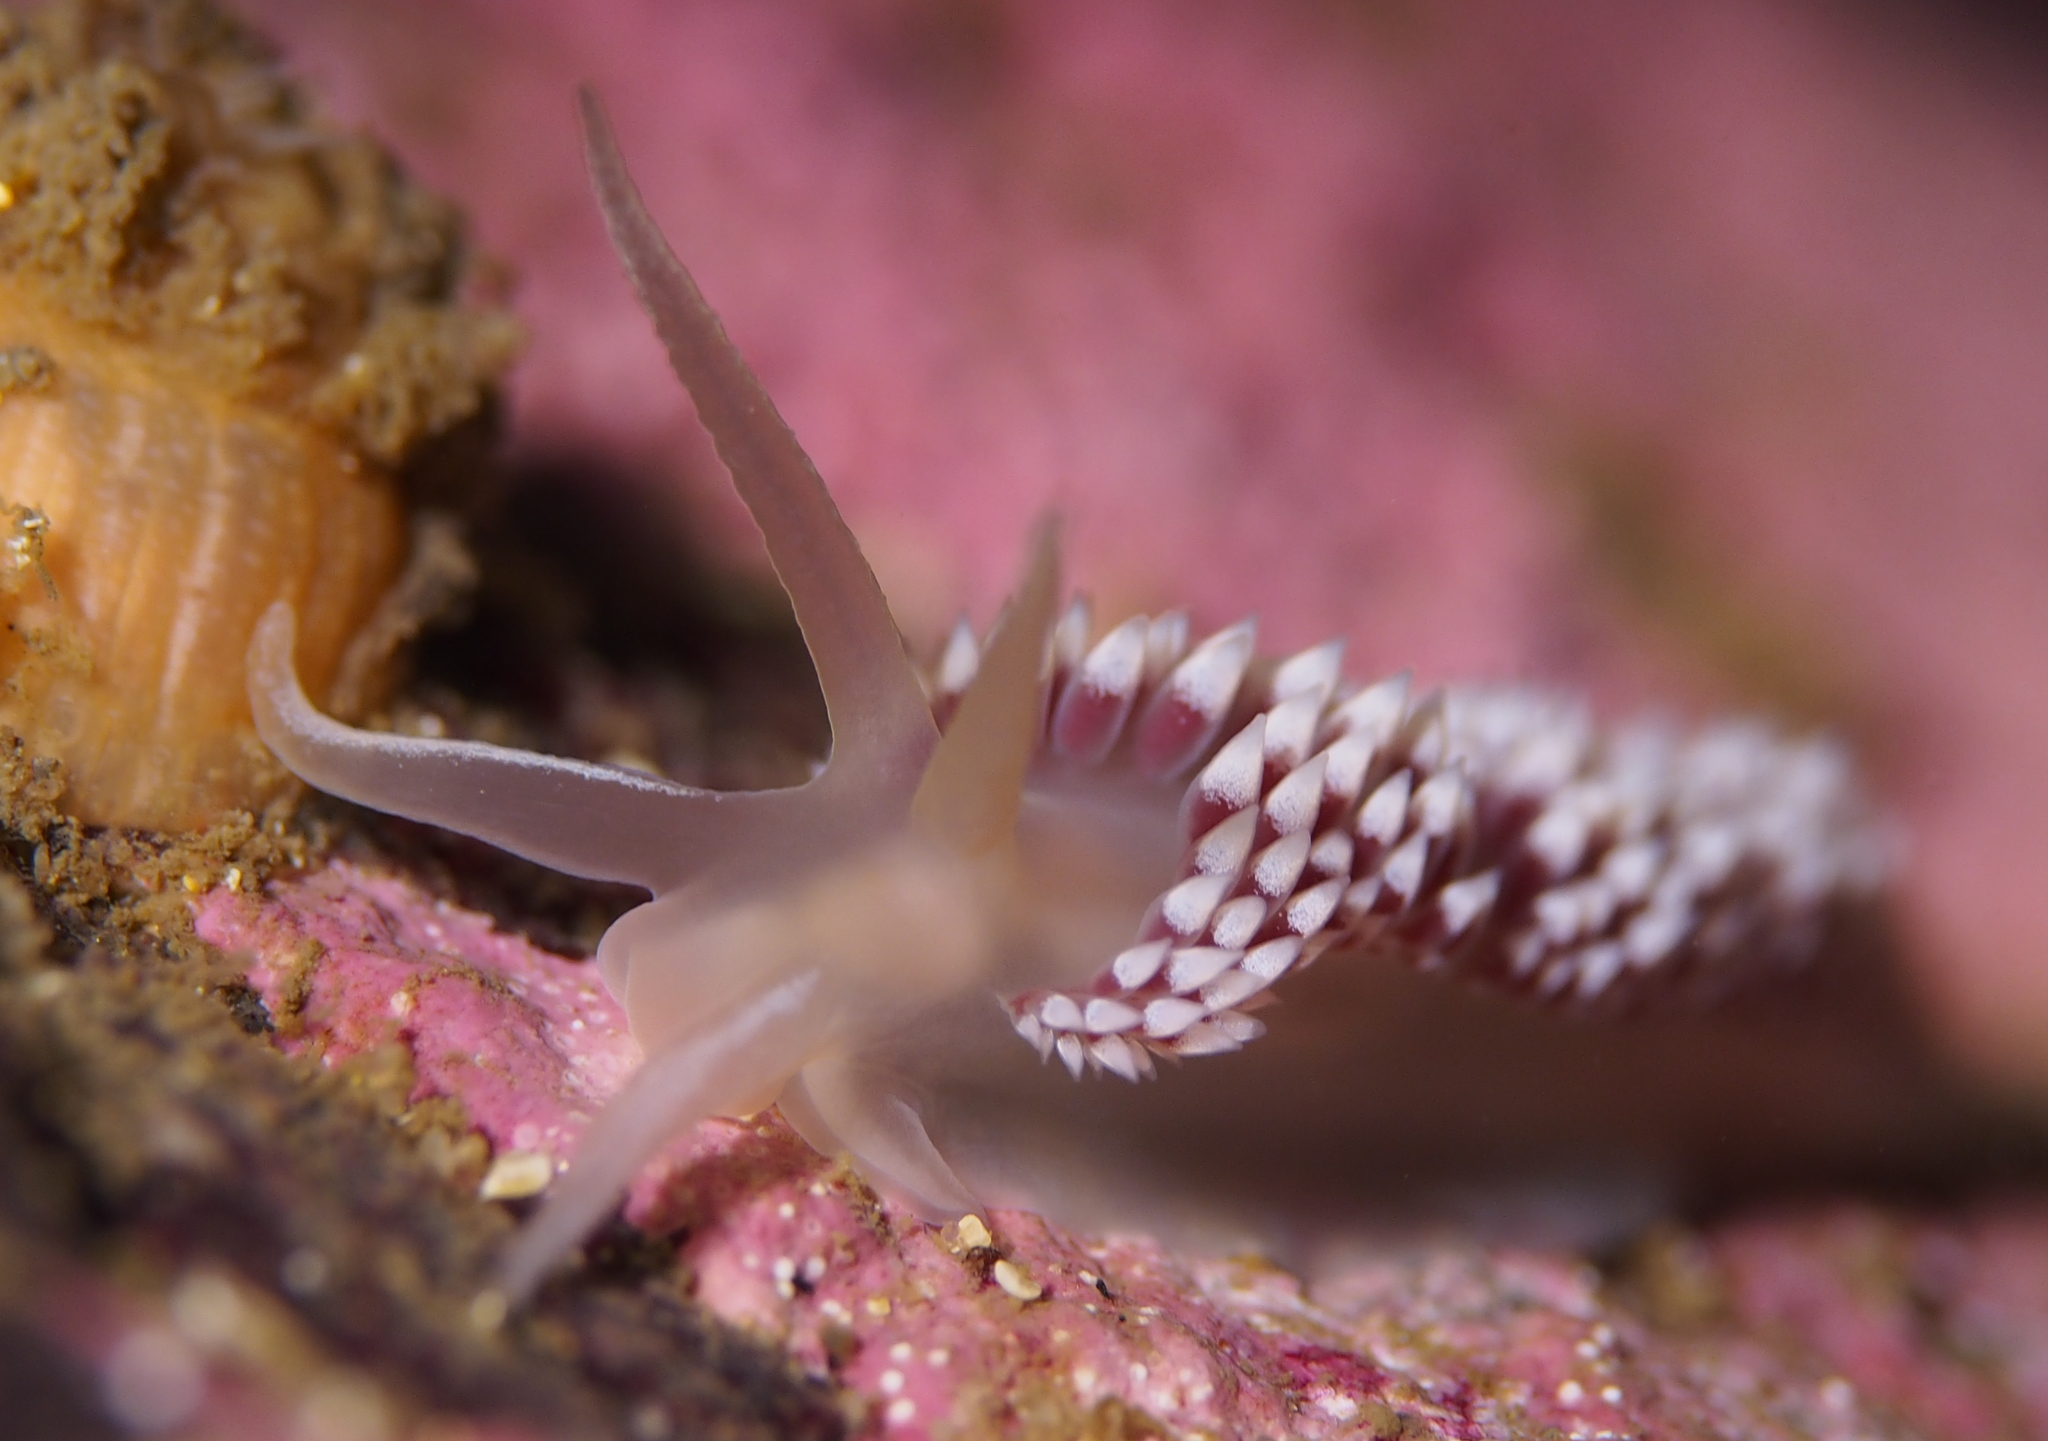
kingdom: Animalia
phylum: Mollusca
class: Gastropoda
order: Nudibranchia
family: Coryphellidae
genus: Coryphella
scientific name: Coryphella verrucosa
